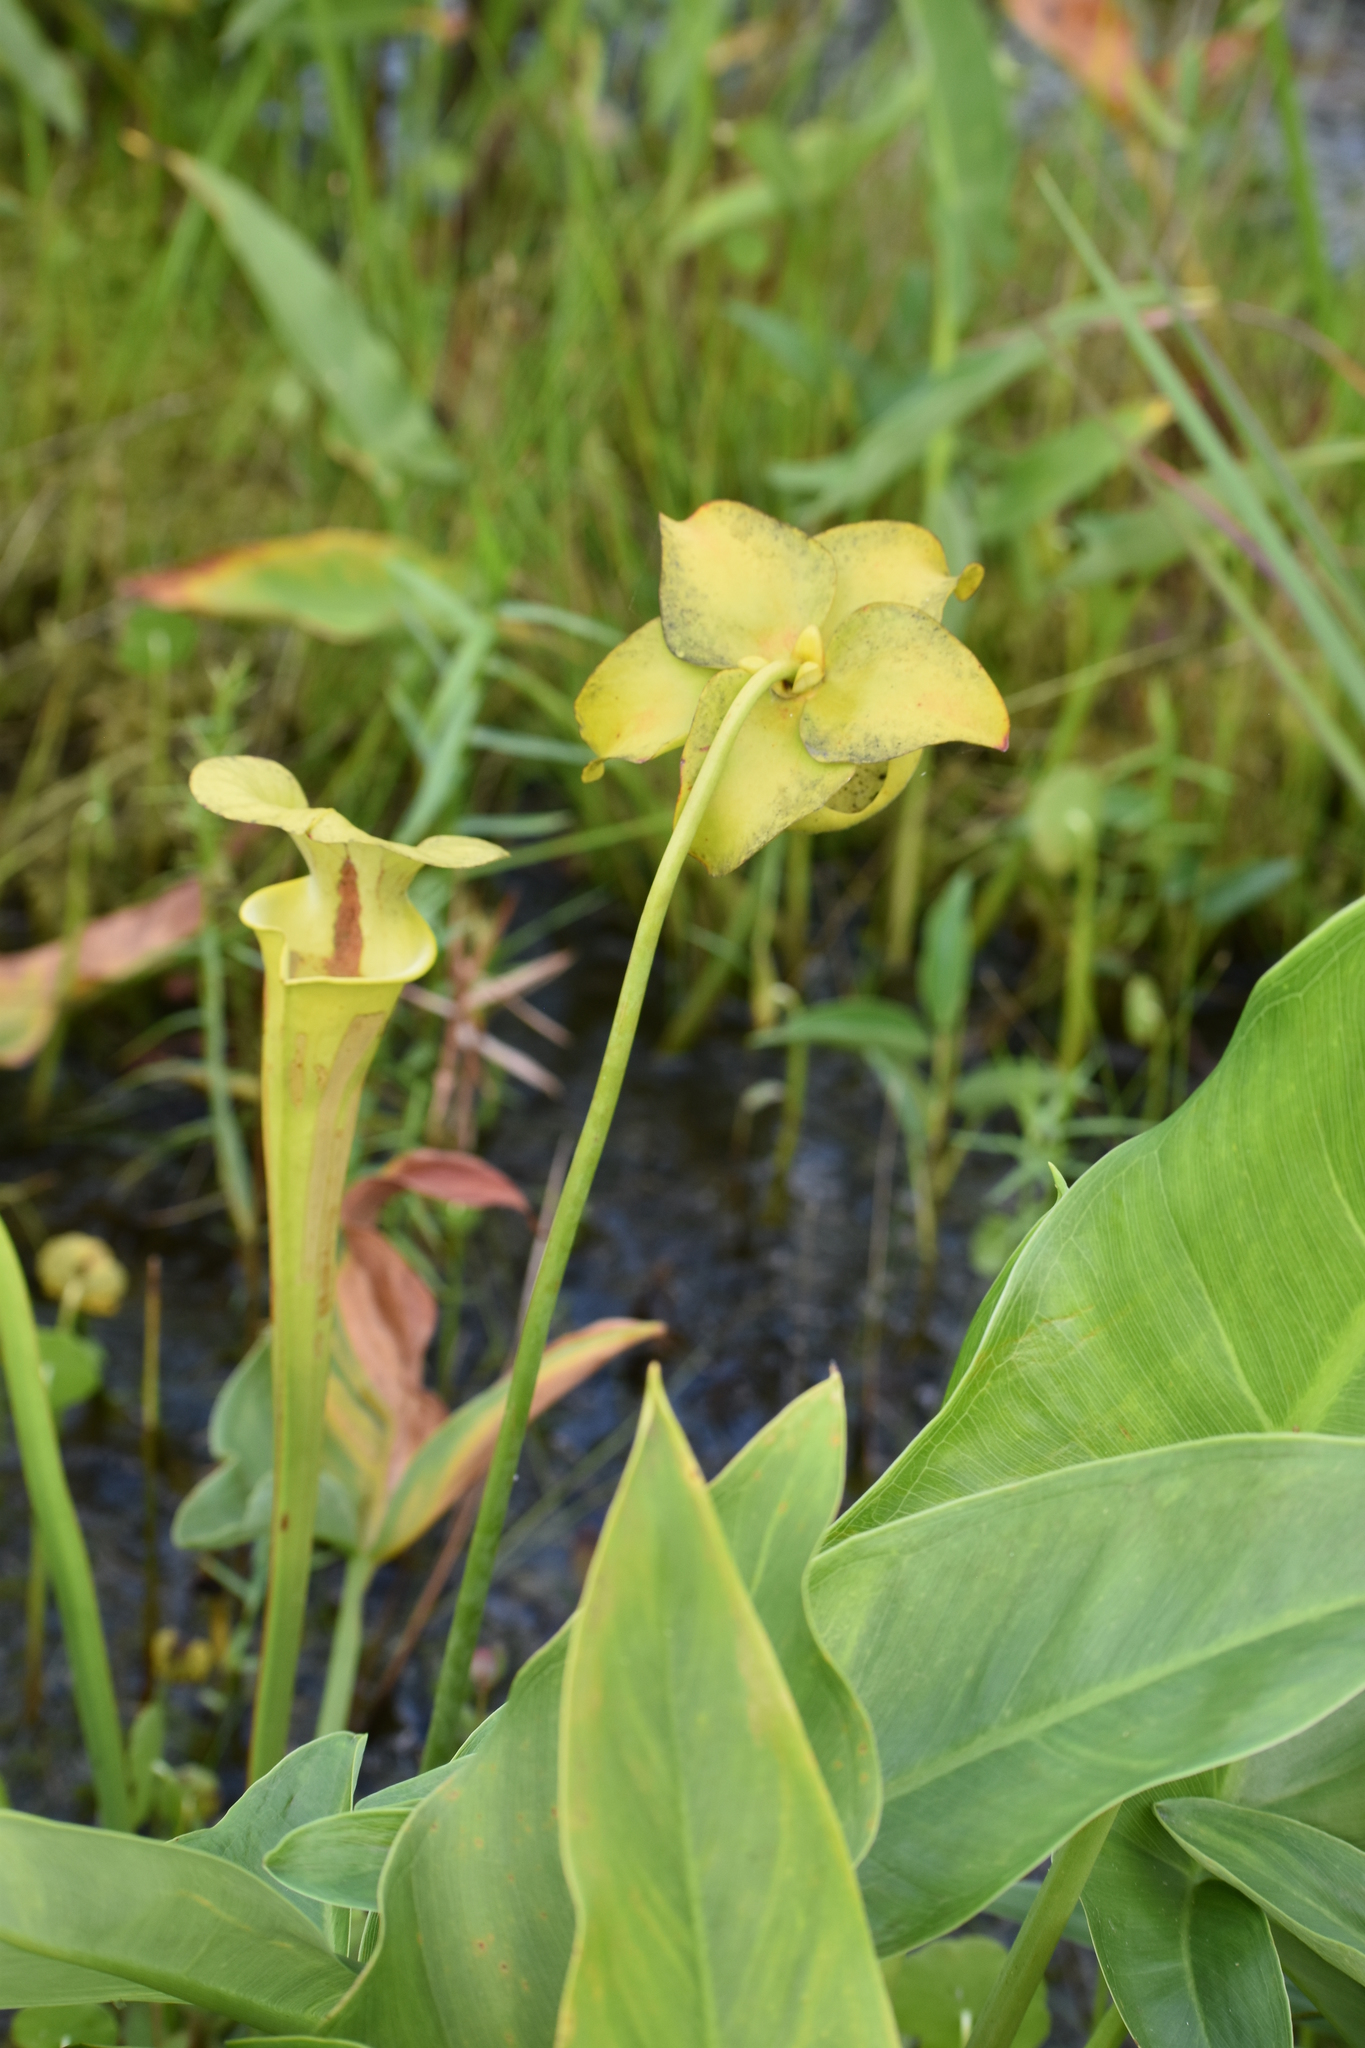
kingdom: Plantae
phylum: Tracheophyta
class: Magnoliopsida
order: Ericales
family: Sarraceniaceae
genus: Sarracenia
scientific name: Sarracenia flava
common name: Trumpets
